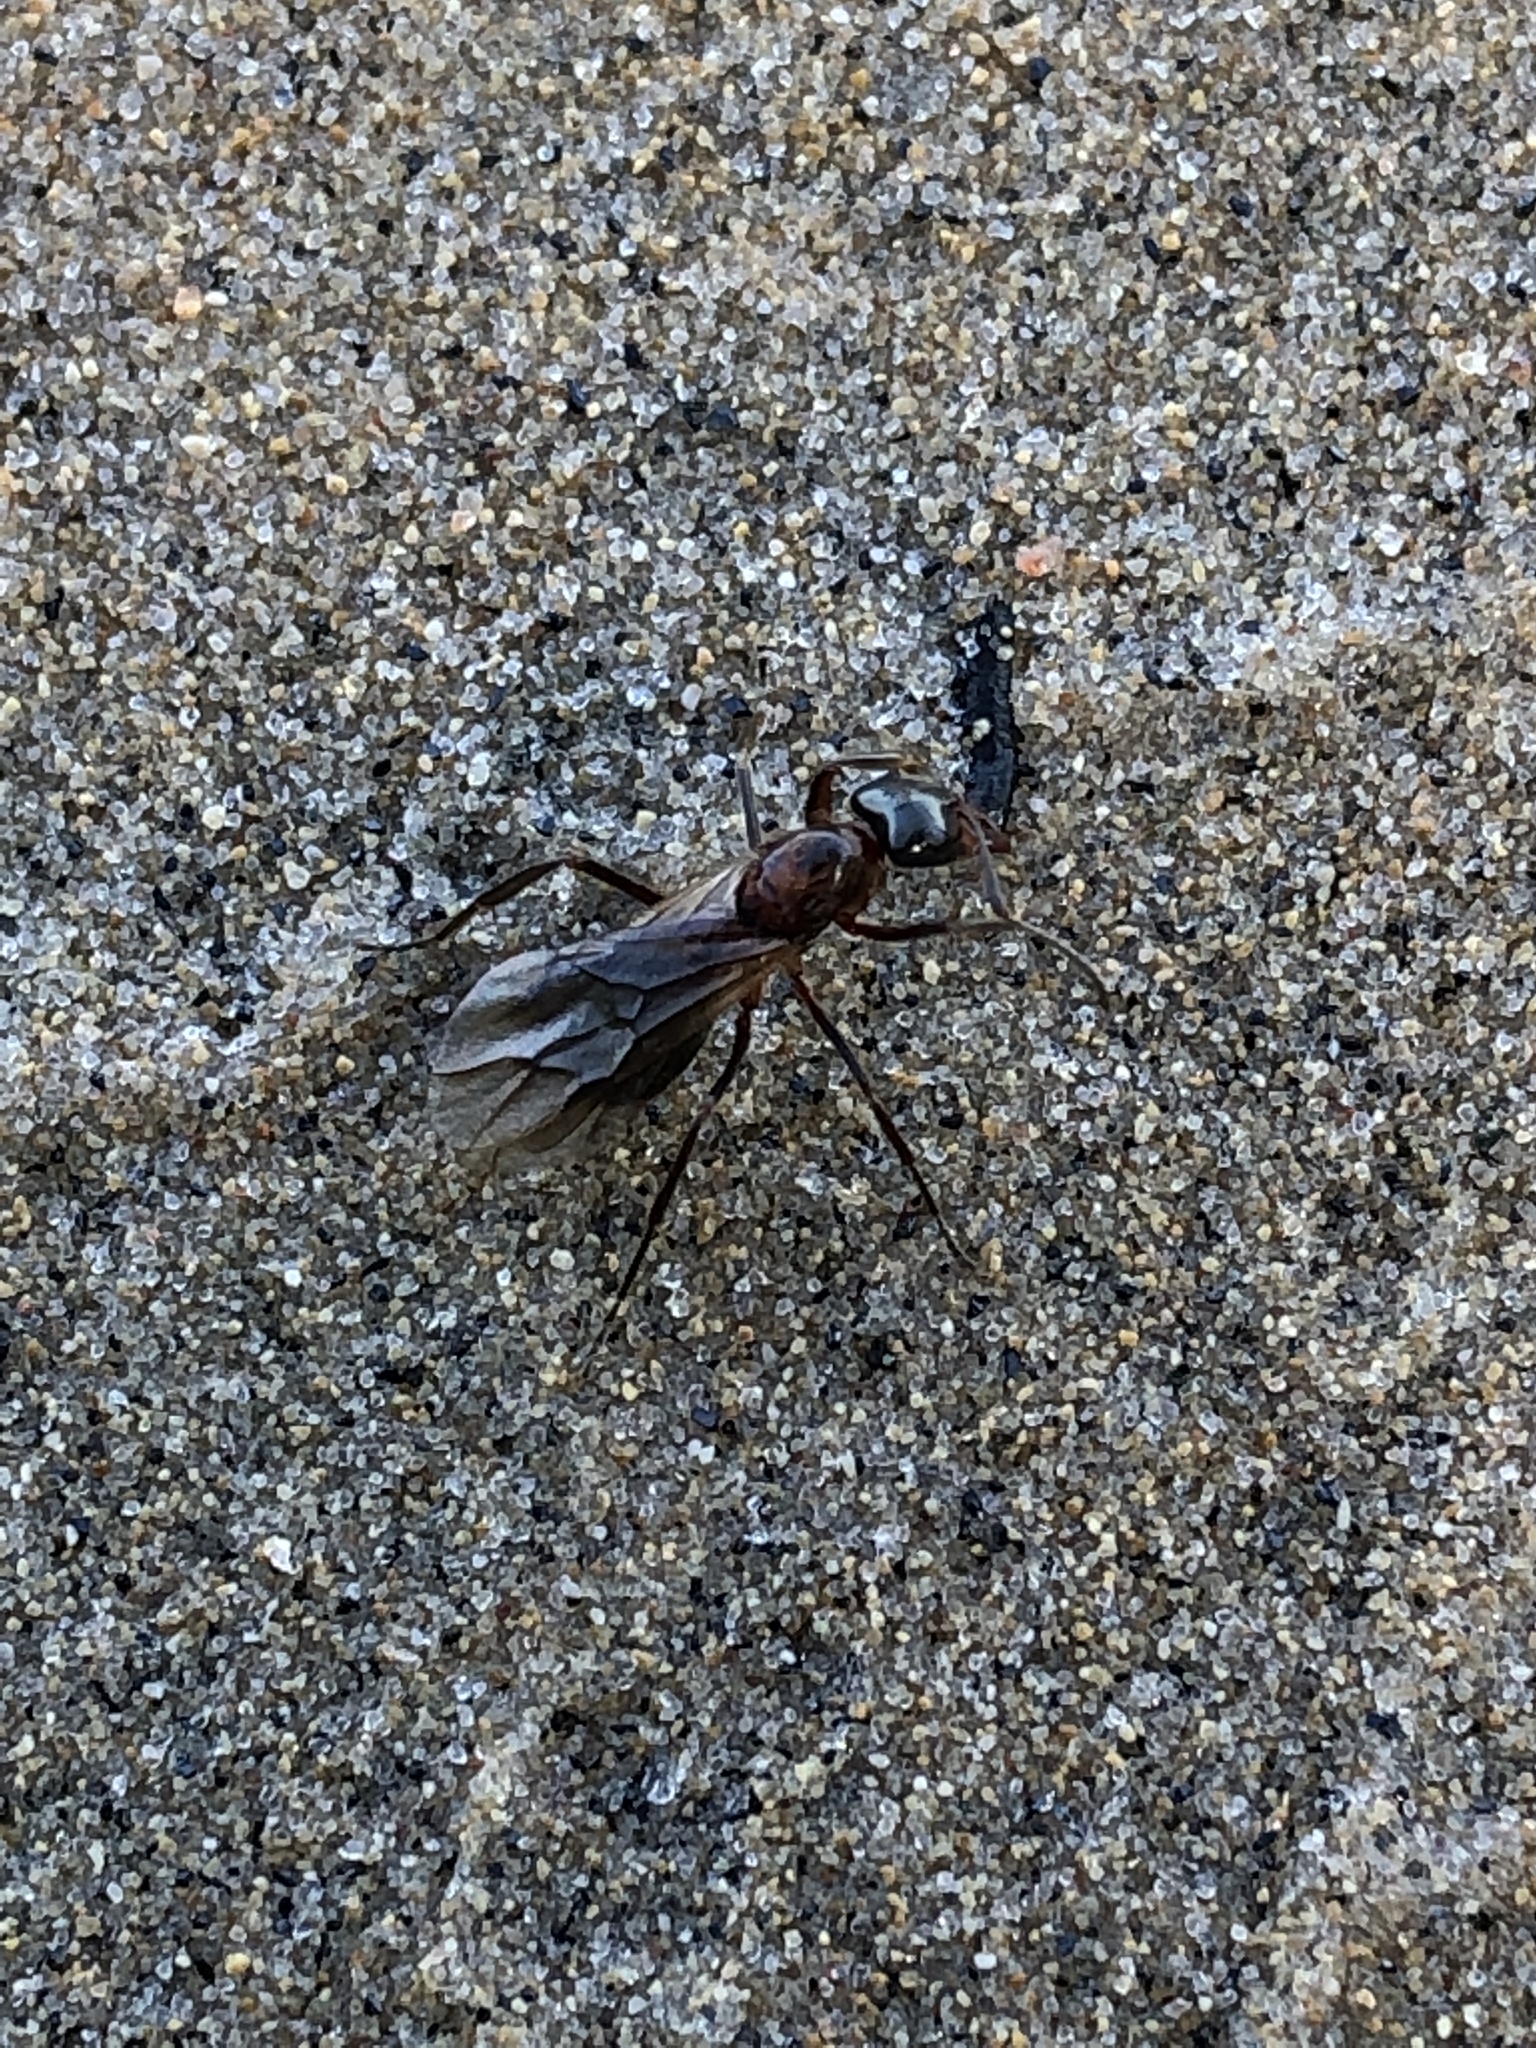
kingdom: Animalia
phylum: Arthropoda
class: Insecta
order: Hymenoptera
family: Formicidae
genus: Formica
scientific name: Formica ulkei
